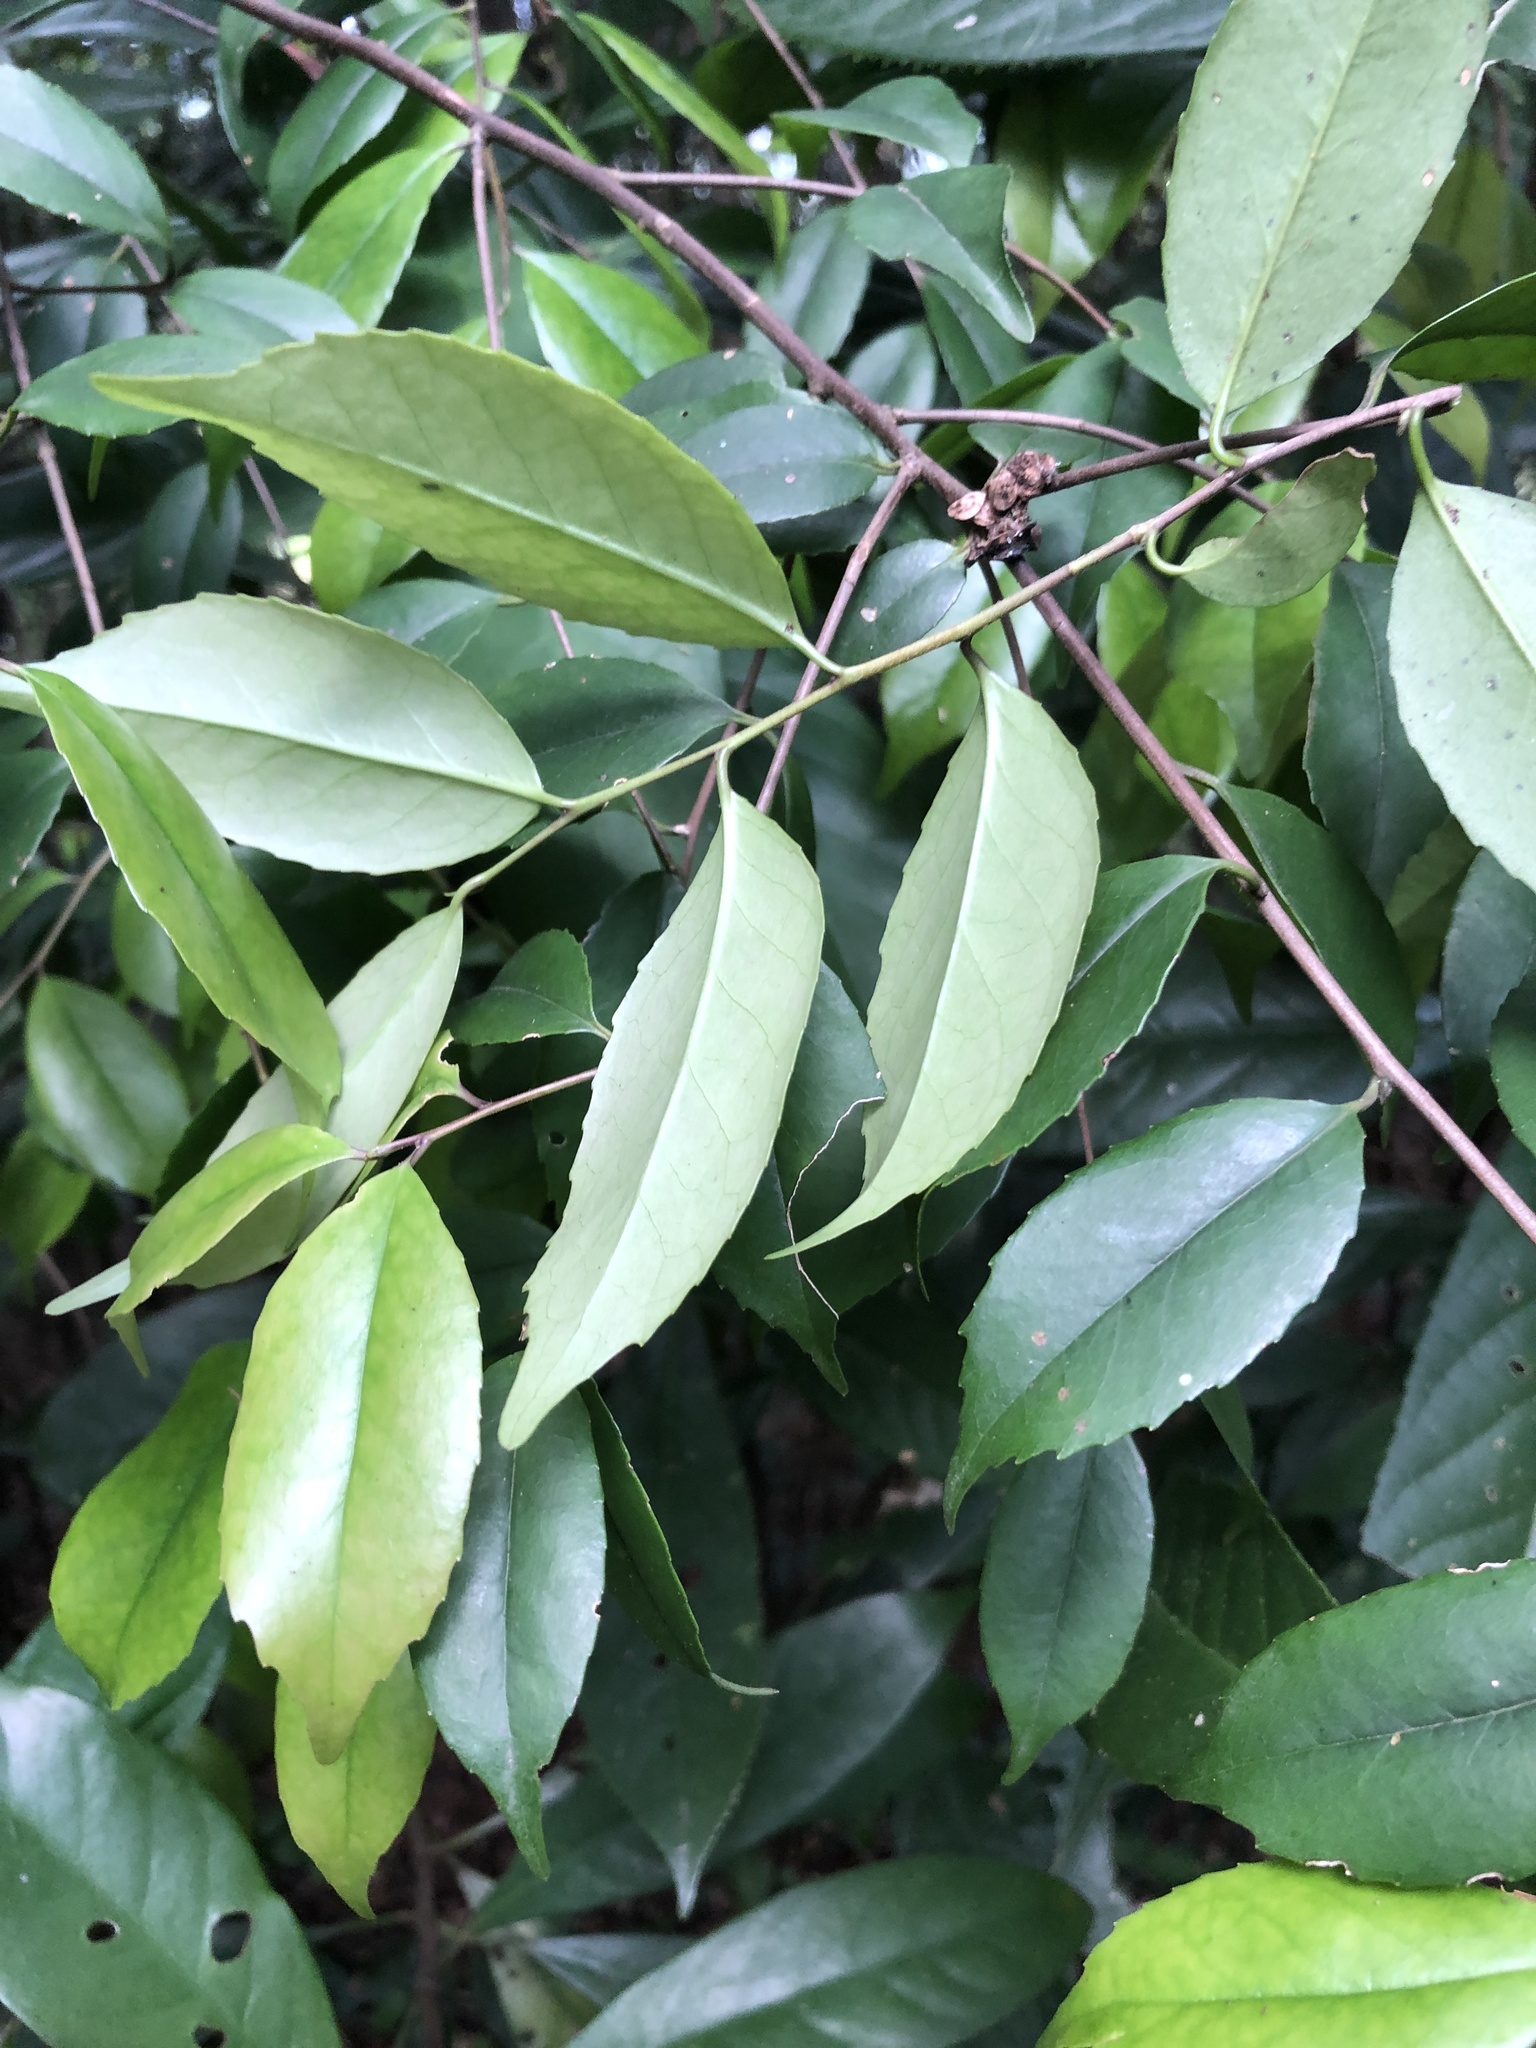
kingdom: Plantae
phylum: Tracheophyta
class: Magnoliopsida
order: Aquifoliales
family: Aquifoliaceae
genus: Ilex
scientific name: Ilex uraiensis
